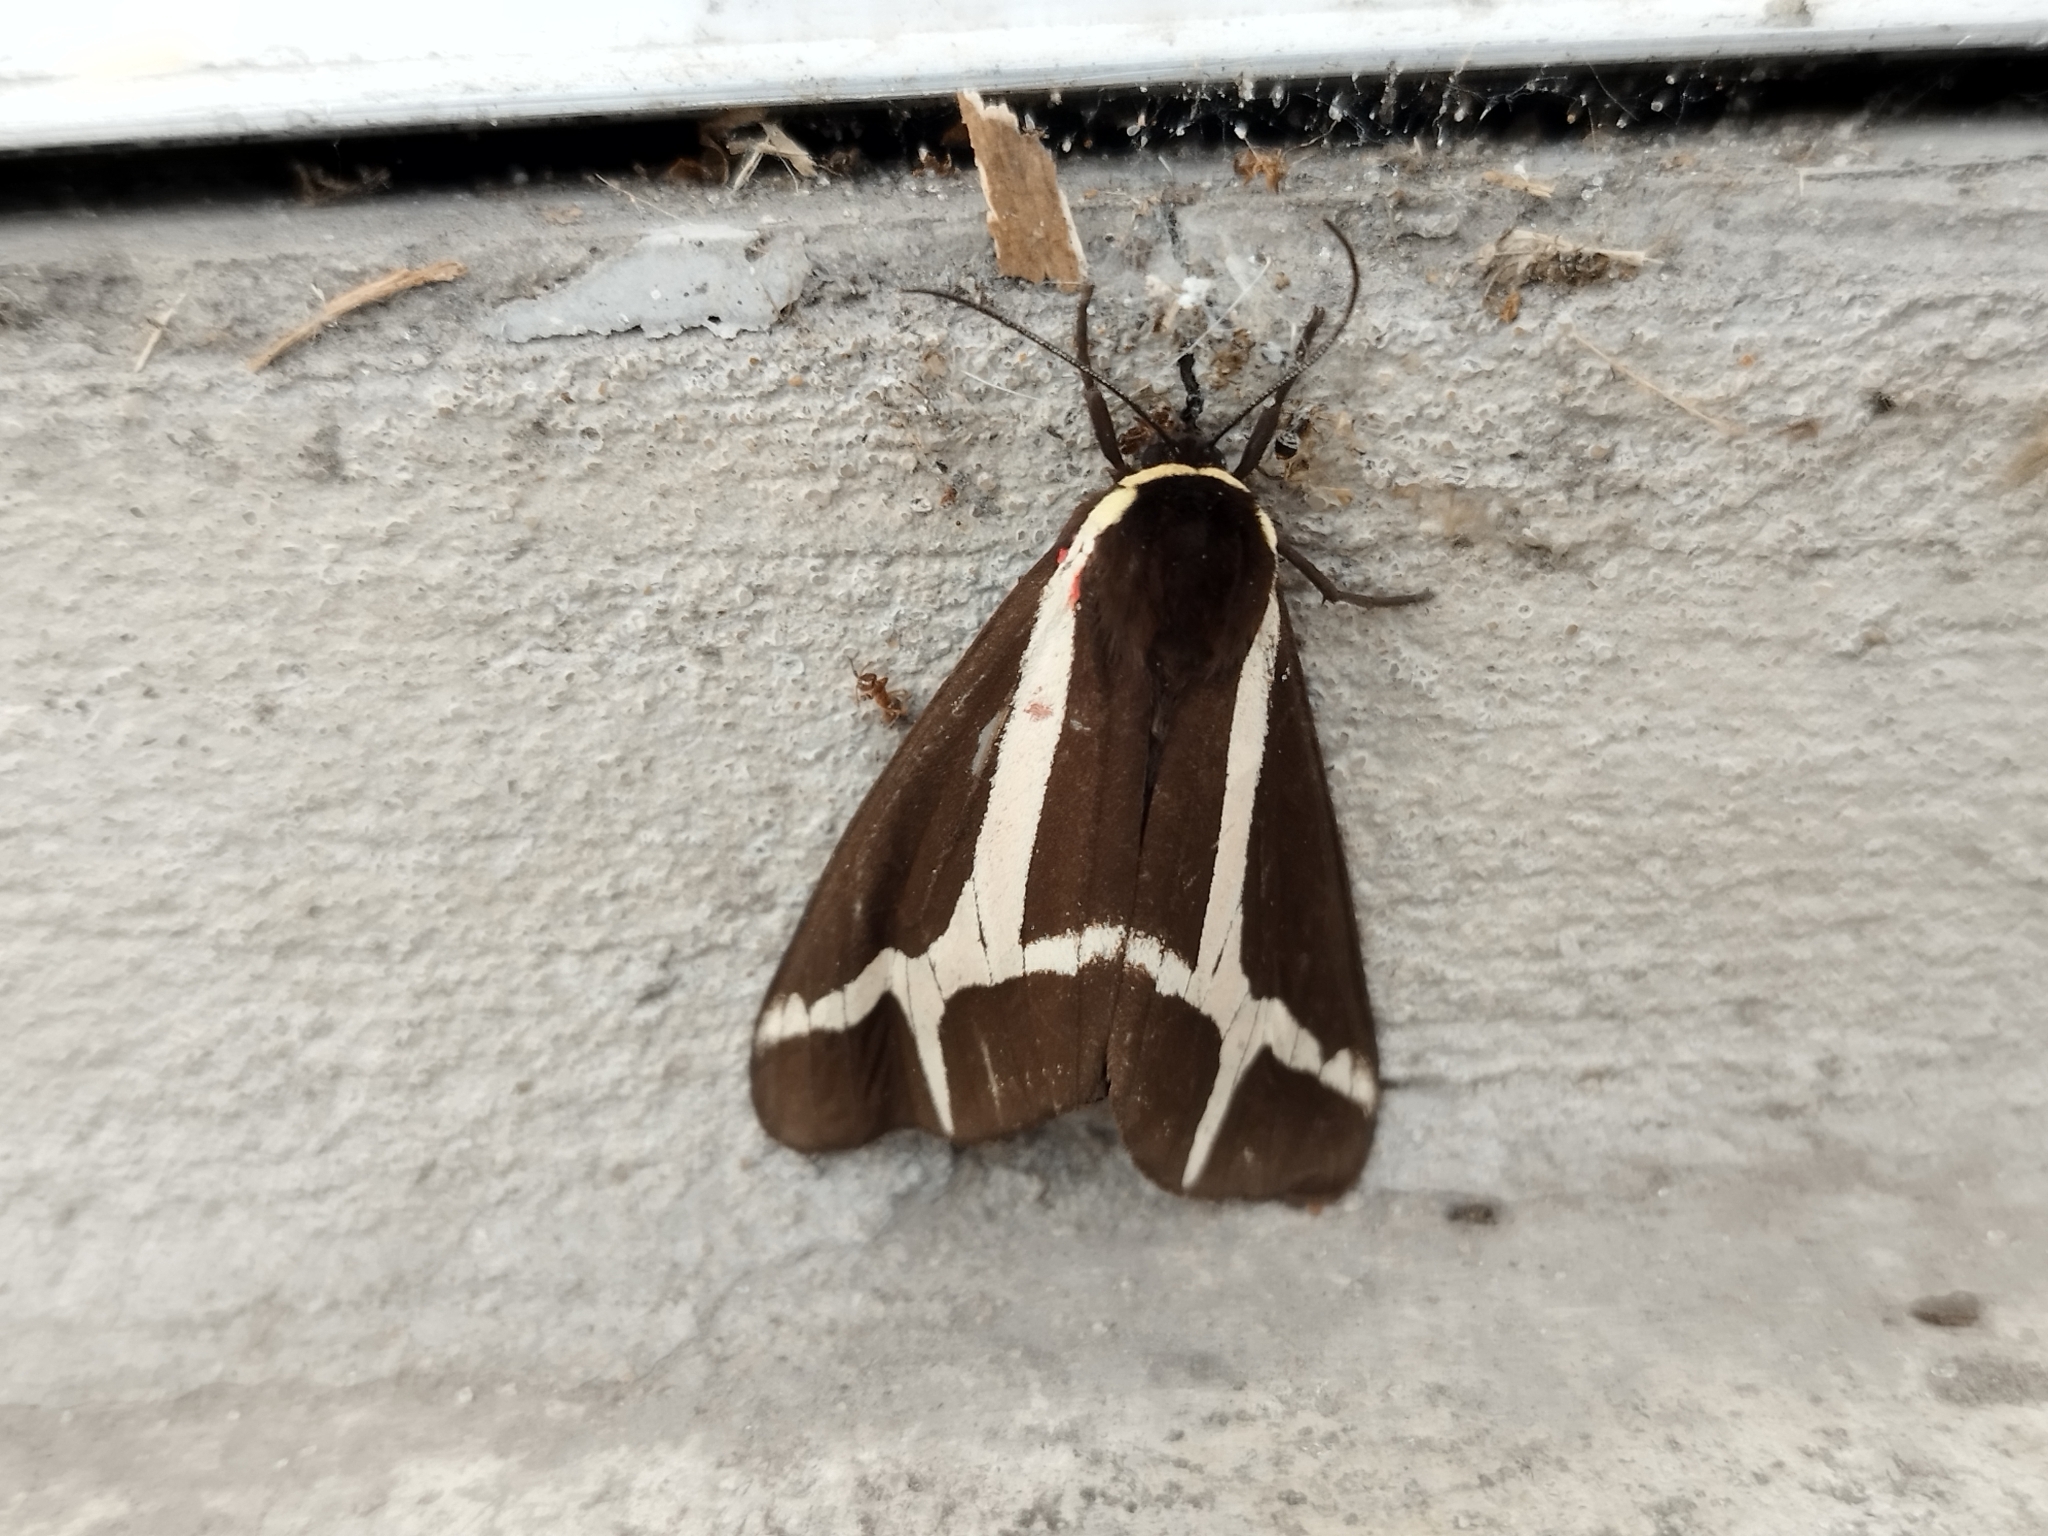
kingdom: Animalia
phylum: Arthropoda
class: Insecta
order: Lepidoptera
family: Erebidae
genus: Dysschema
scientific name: Dysschema sacrifica
